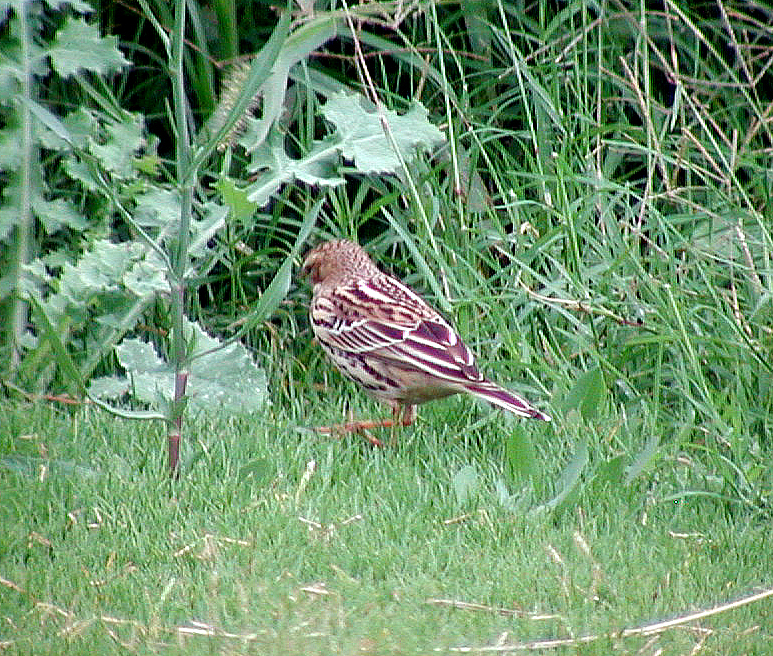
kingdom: Animalia
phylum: Chordata
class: Aves
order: Passeriformes
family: Motacillidae
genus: Anthus
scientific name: Anthus cervinus
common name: Red-throated pipit
